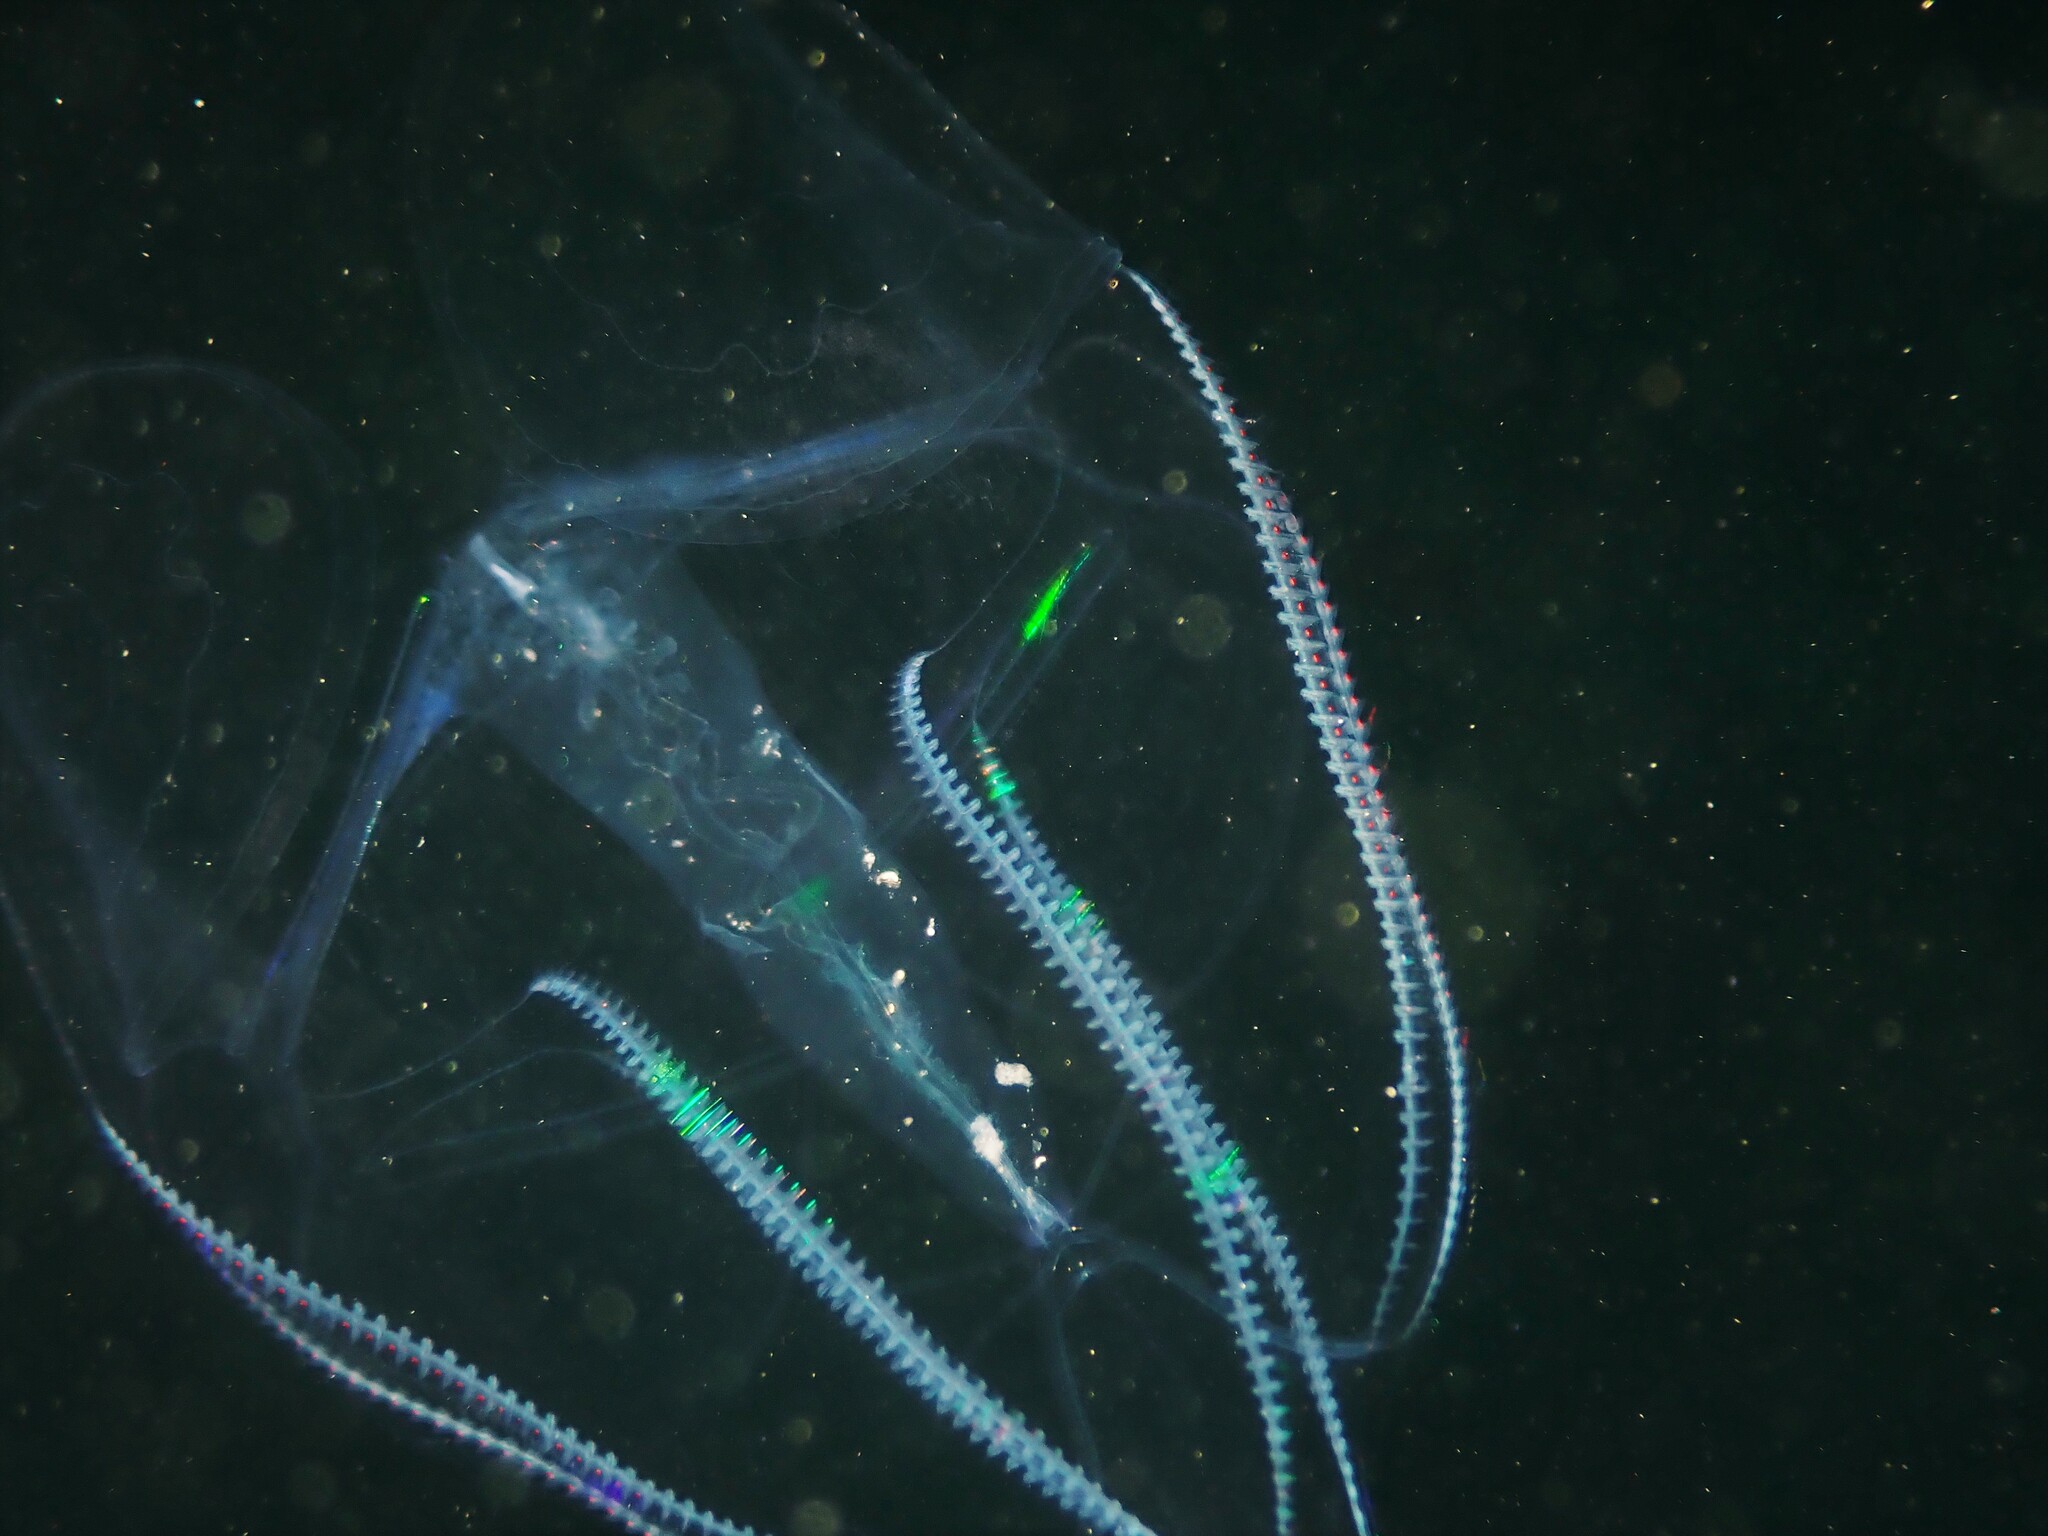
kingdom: Animalia
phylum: Ctenophora
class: Tentaculata
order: Lobata
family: Eurhamphaeidae
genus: Eurhamphaea
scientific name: Eurhamphaea vexilligera
